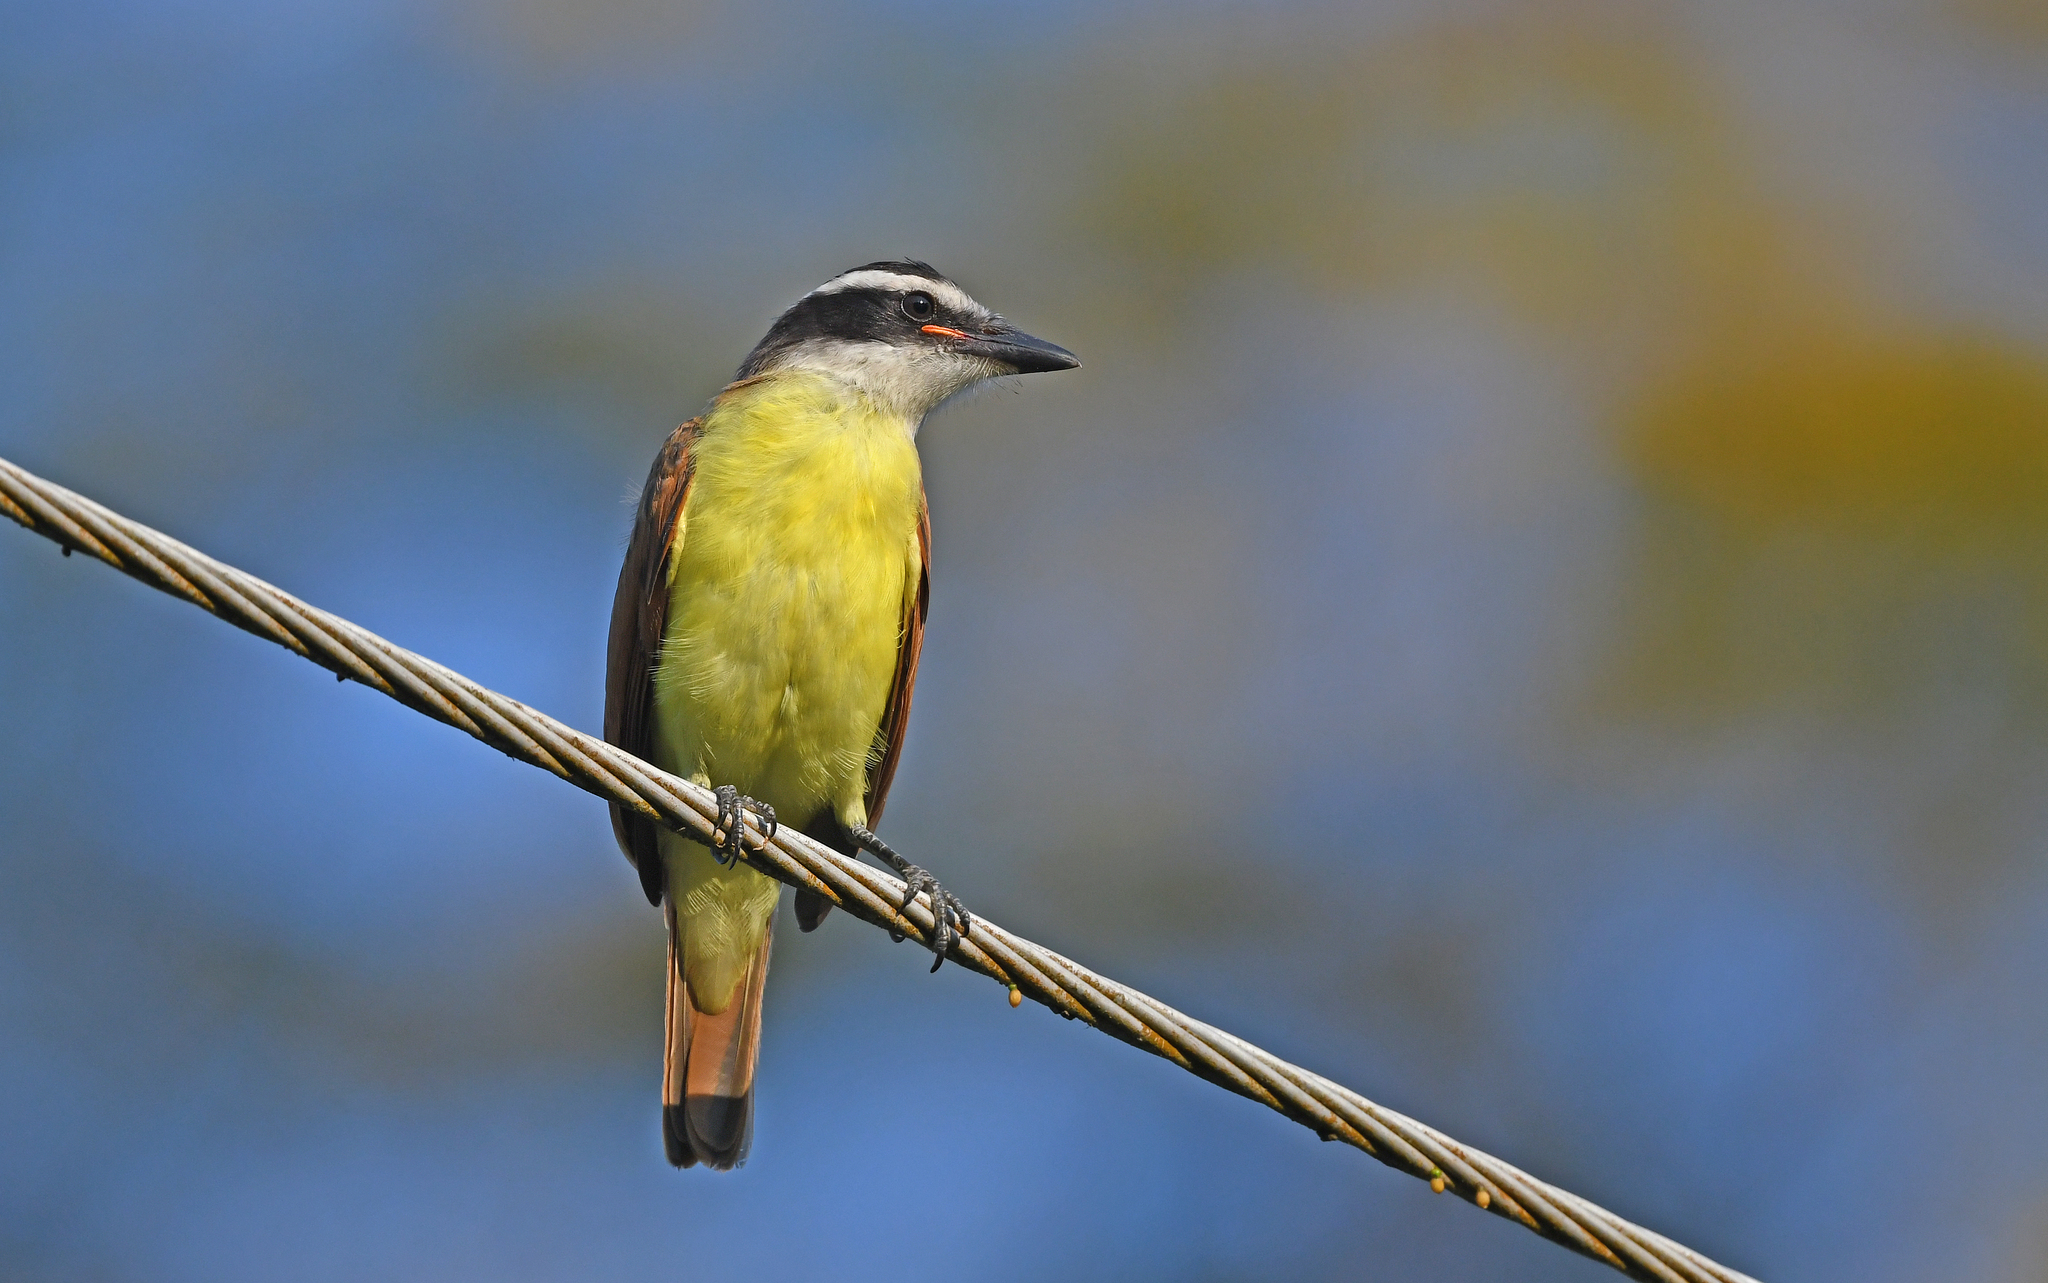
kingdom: Animalia
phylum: Chordata
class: Aves
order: Passeriformes
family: Tyrannidae
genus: Pitangus
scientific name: Pitangus sulphuratus
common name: Great kiskadee
